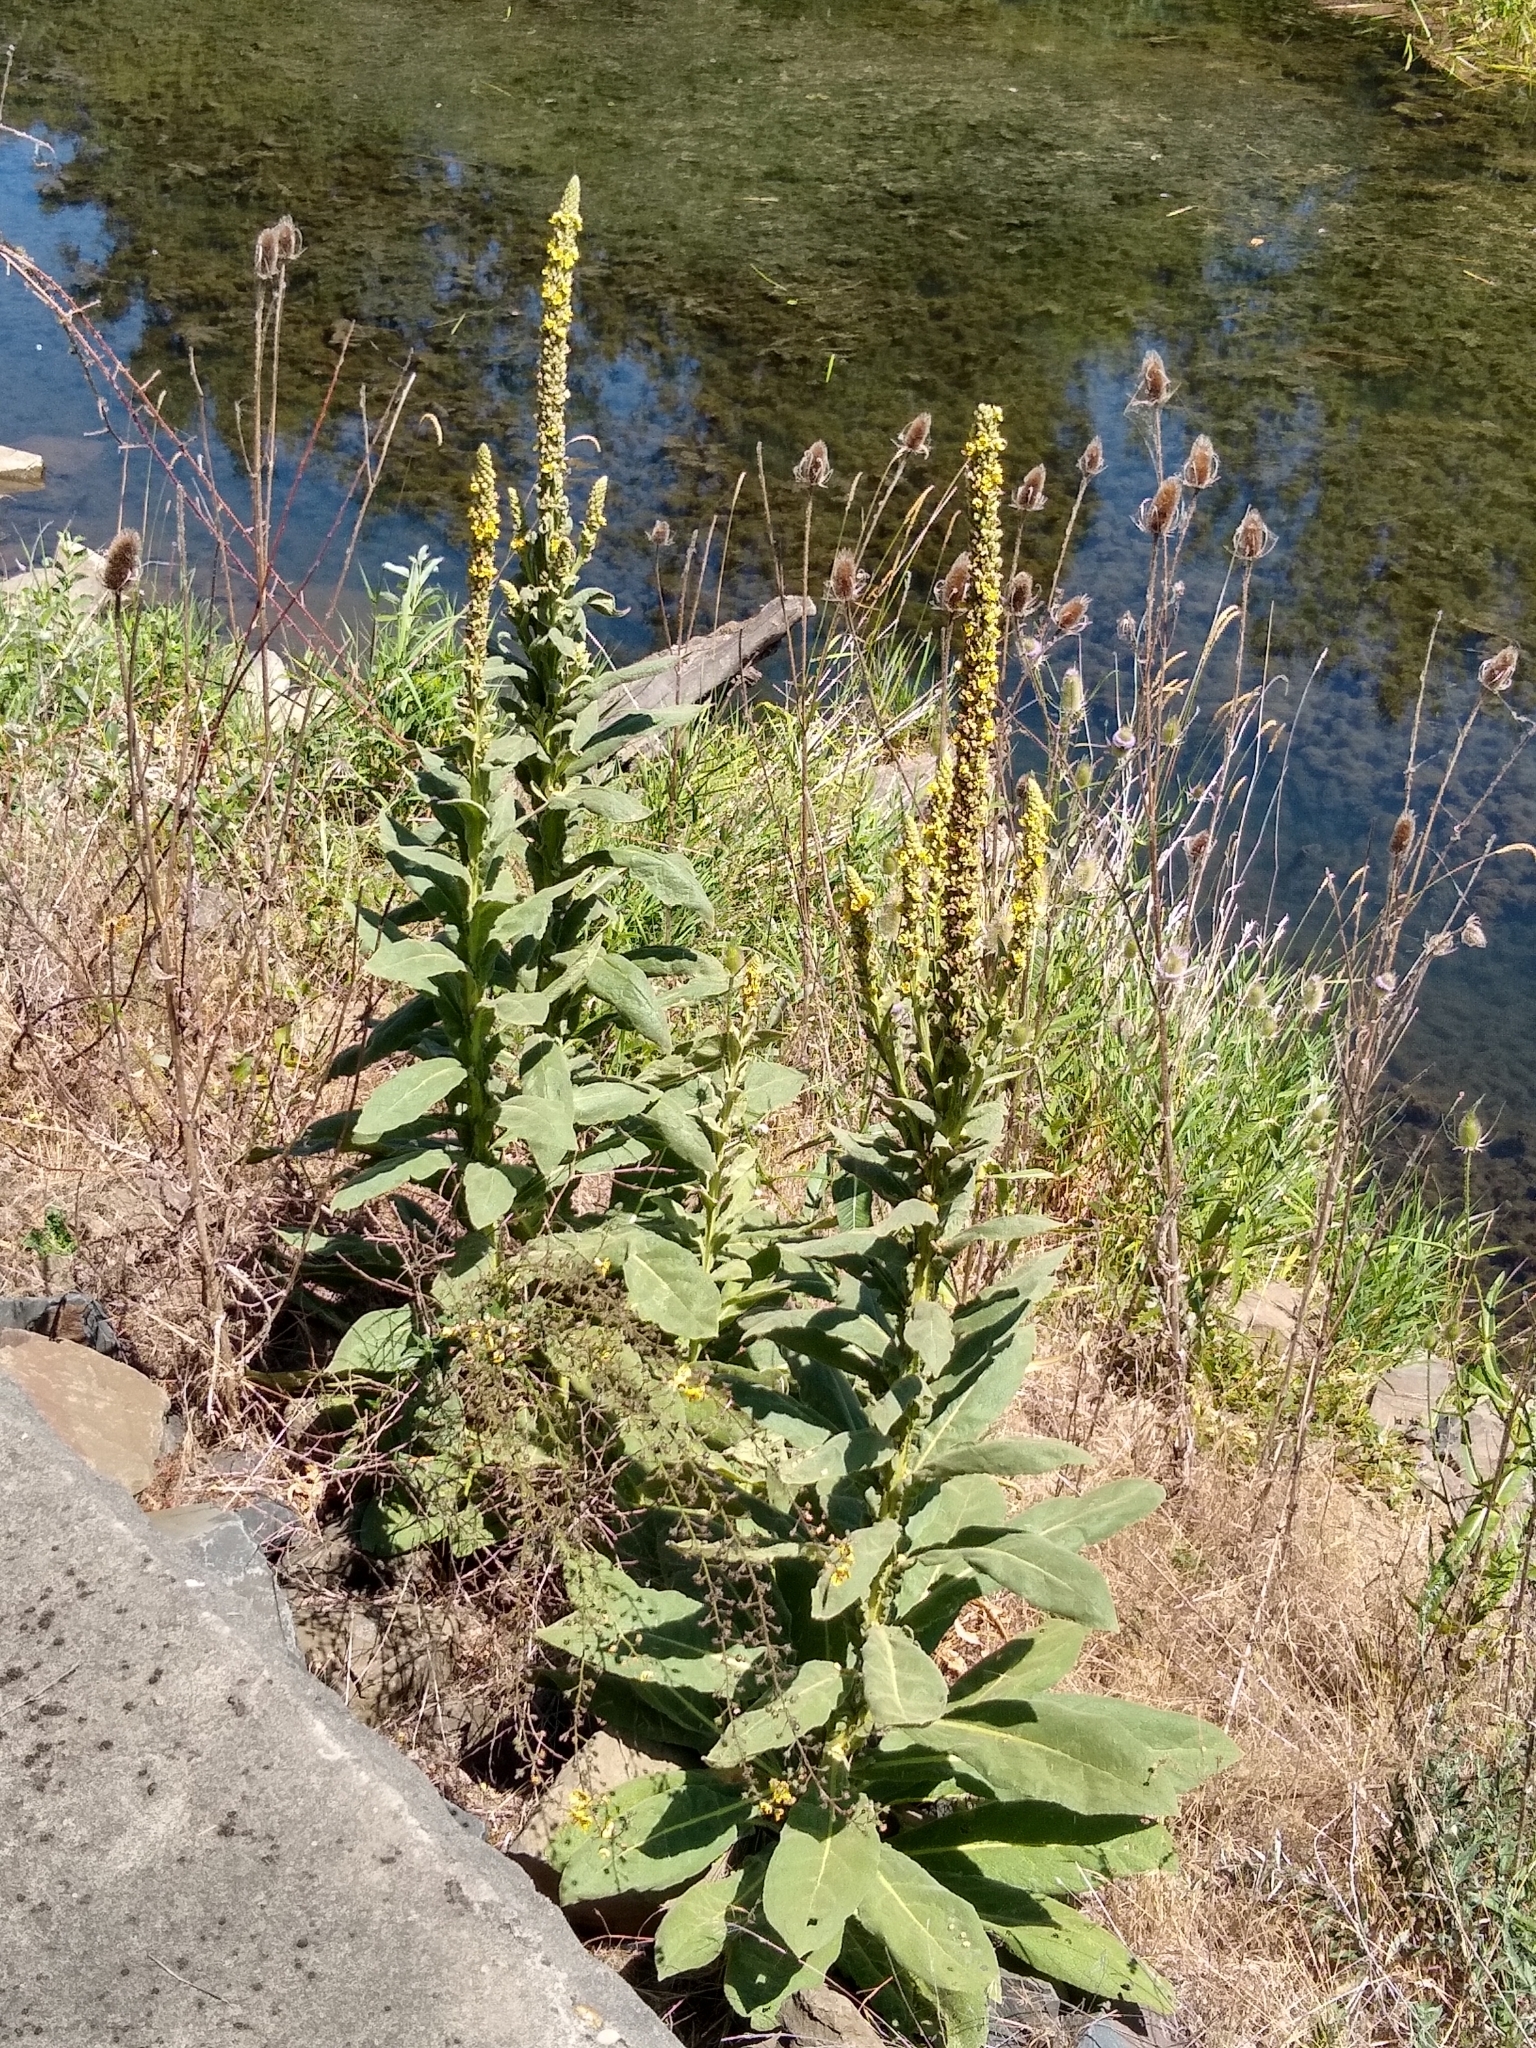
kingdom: Plantae
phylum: Tracheophyta
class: Magnoliopsida
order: Lamiales
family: Scrophulariaceae
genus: Verbascum
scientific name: Verbascum thapsus
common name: Common mullein
